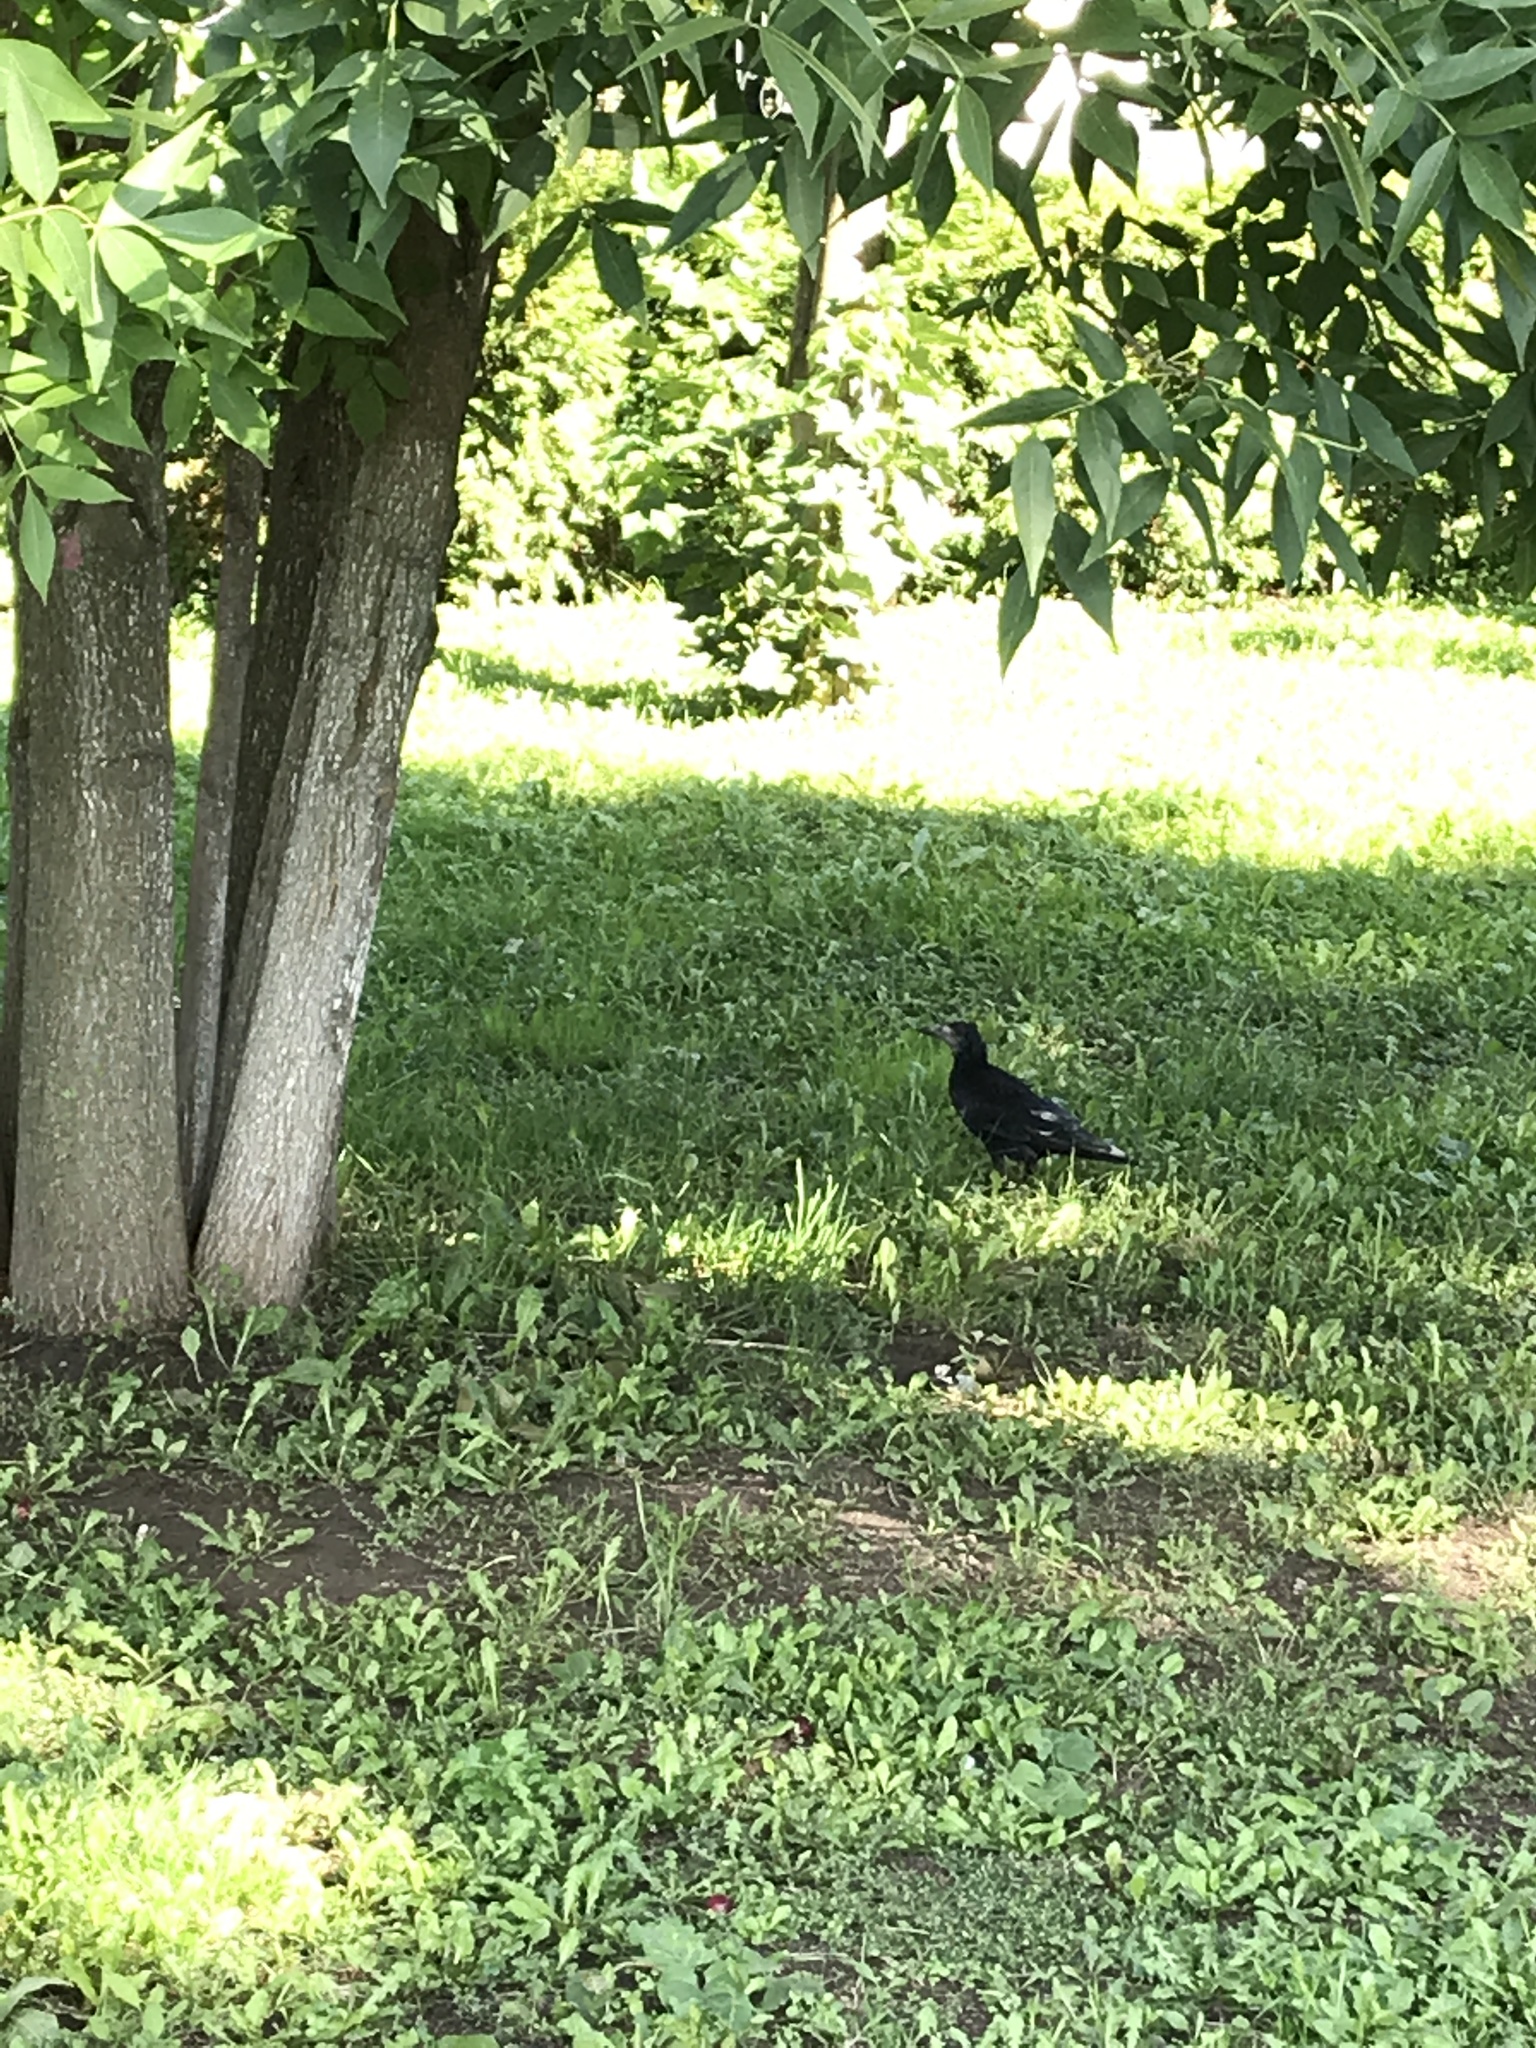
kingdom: Animalia
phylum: Chordata
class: Aves
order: Passeriformes
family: Corvidae
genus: Corvus
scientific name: Corvus frugilegus
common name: Rook
